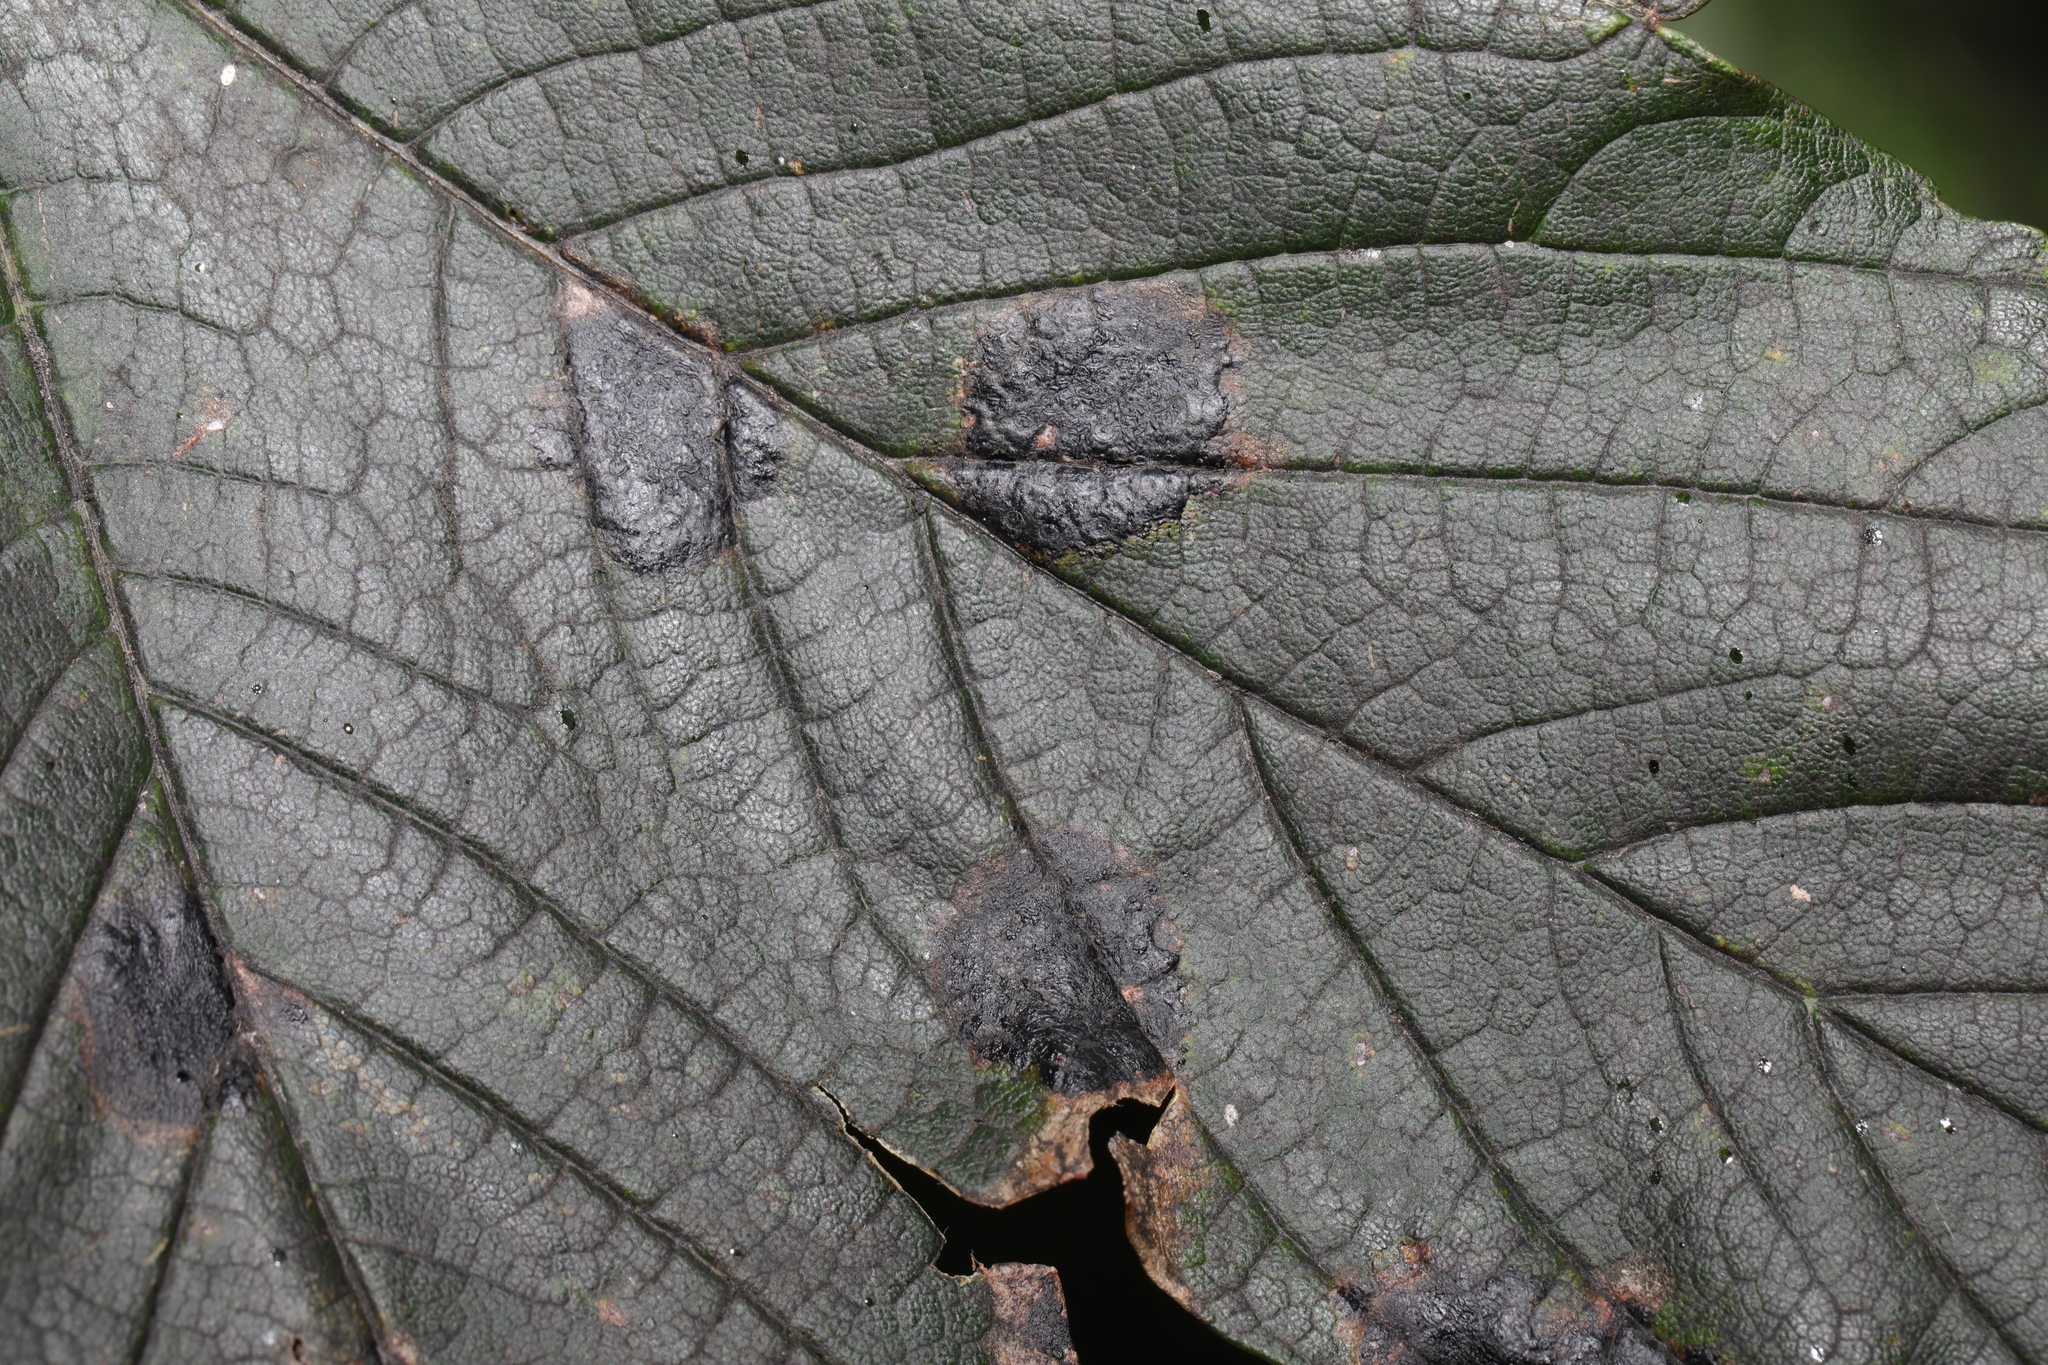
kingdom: Fungi
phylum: Ascomycota
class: Leotiomycetes
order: Rhytismatales
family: Rhytismataceae
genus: Rhytisma
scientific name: Rhytisma acerinum
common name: European tar spot
